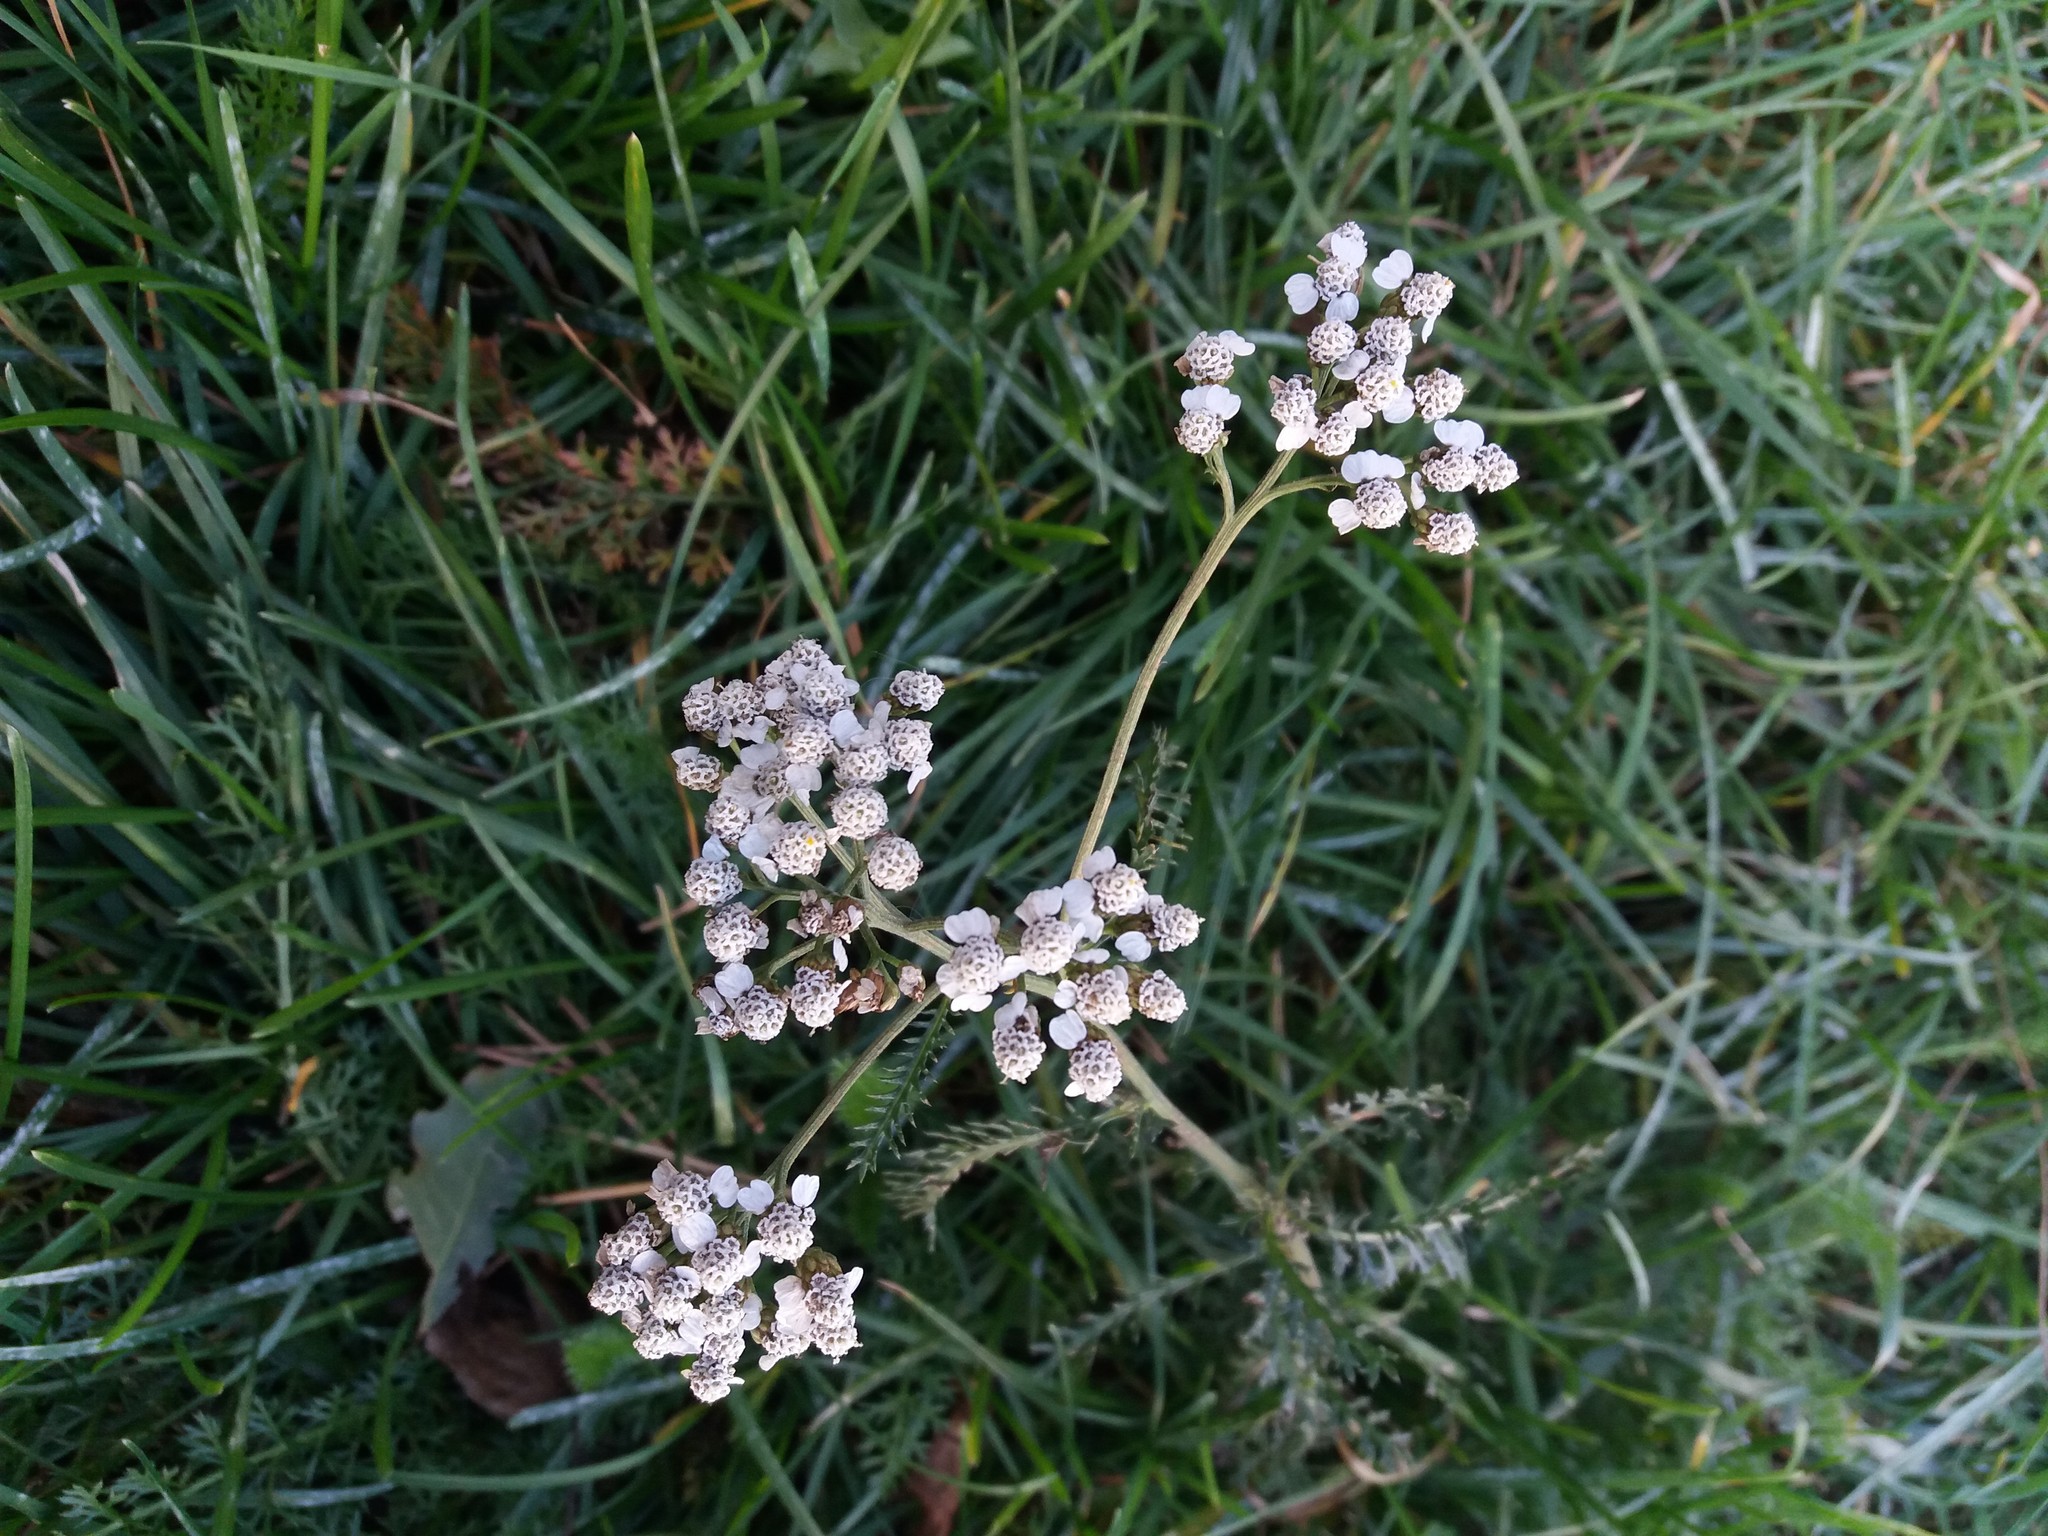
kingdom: Plantae
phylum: Tracheophyta
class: Magnoliopsida
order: Asterales
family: Asteraceae
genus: Achillea
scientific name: Achillea millefolium
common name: Yarrow
